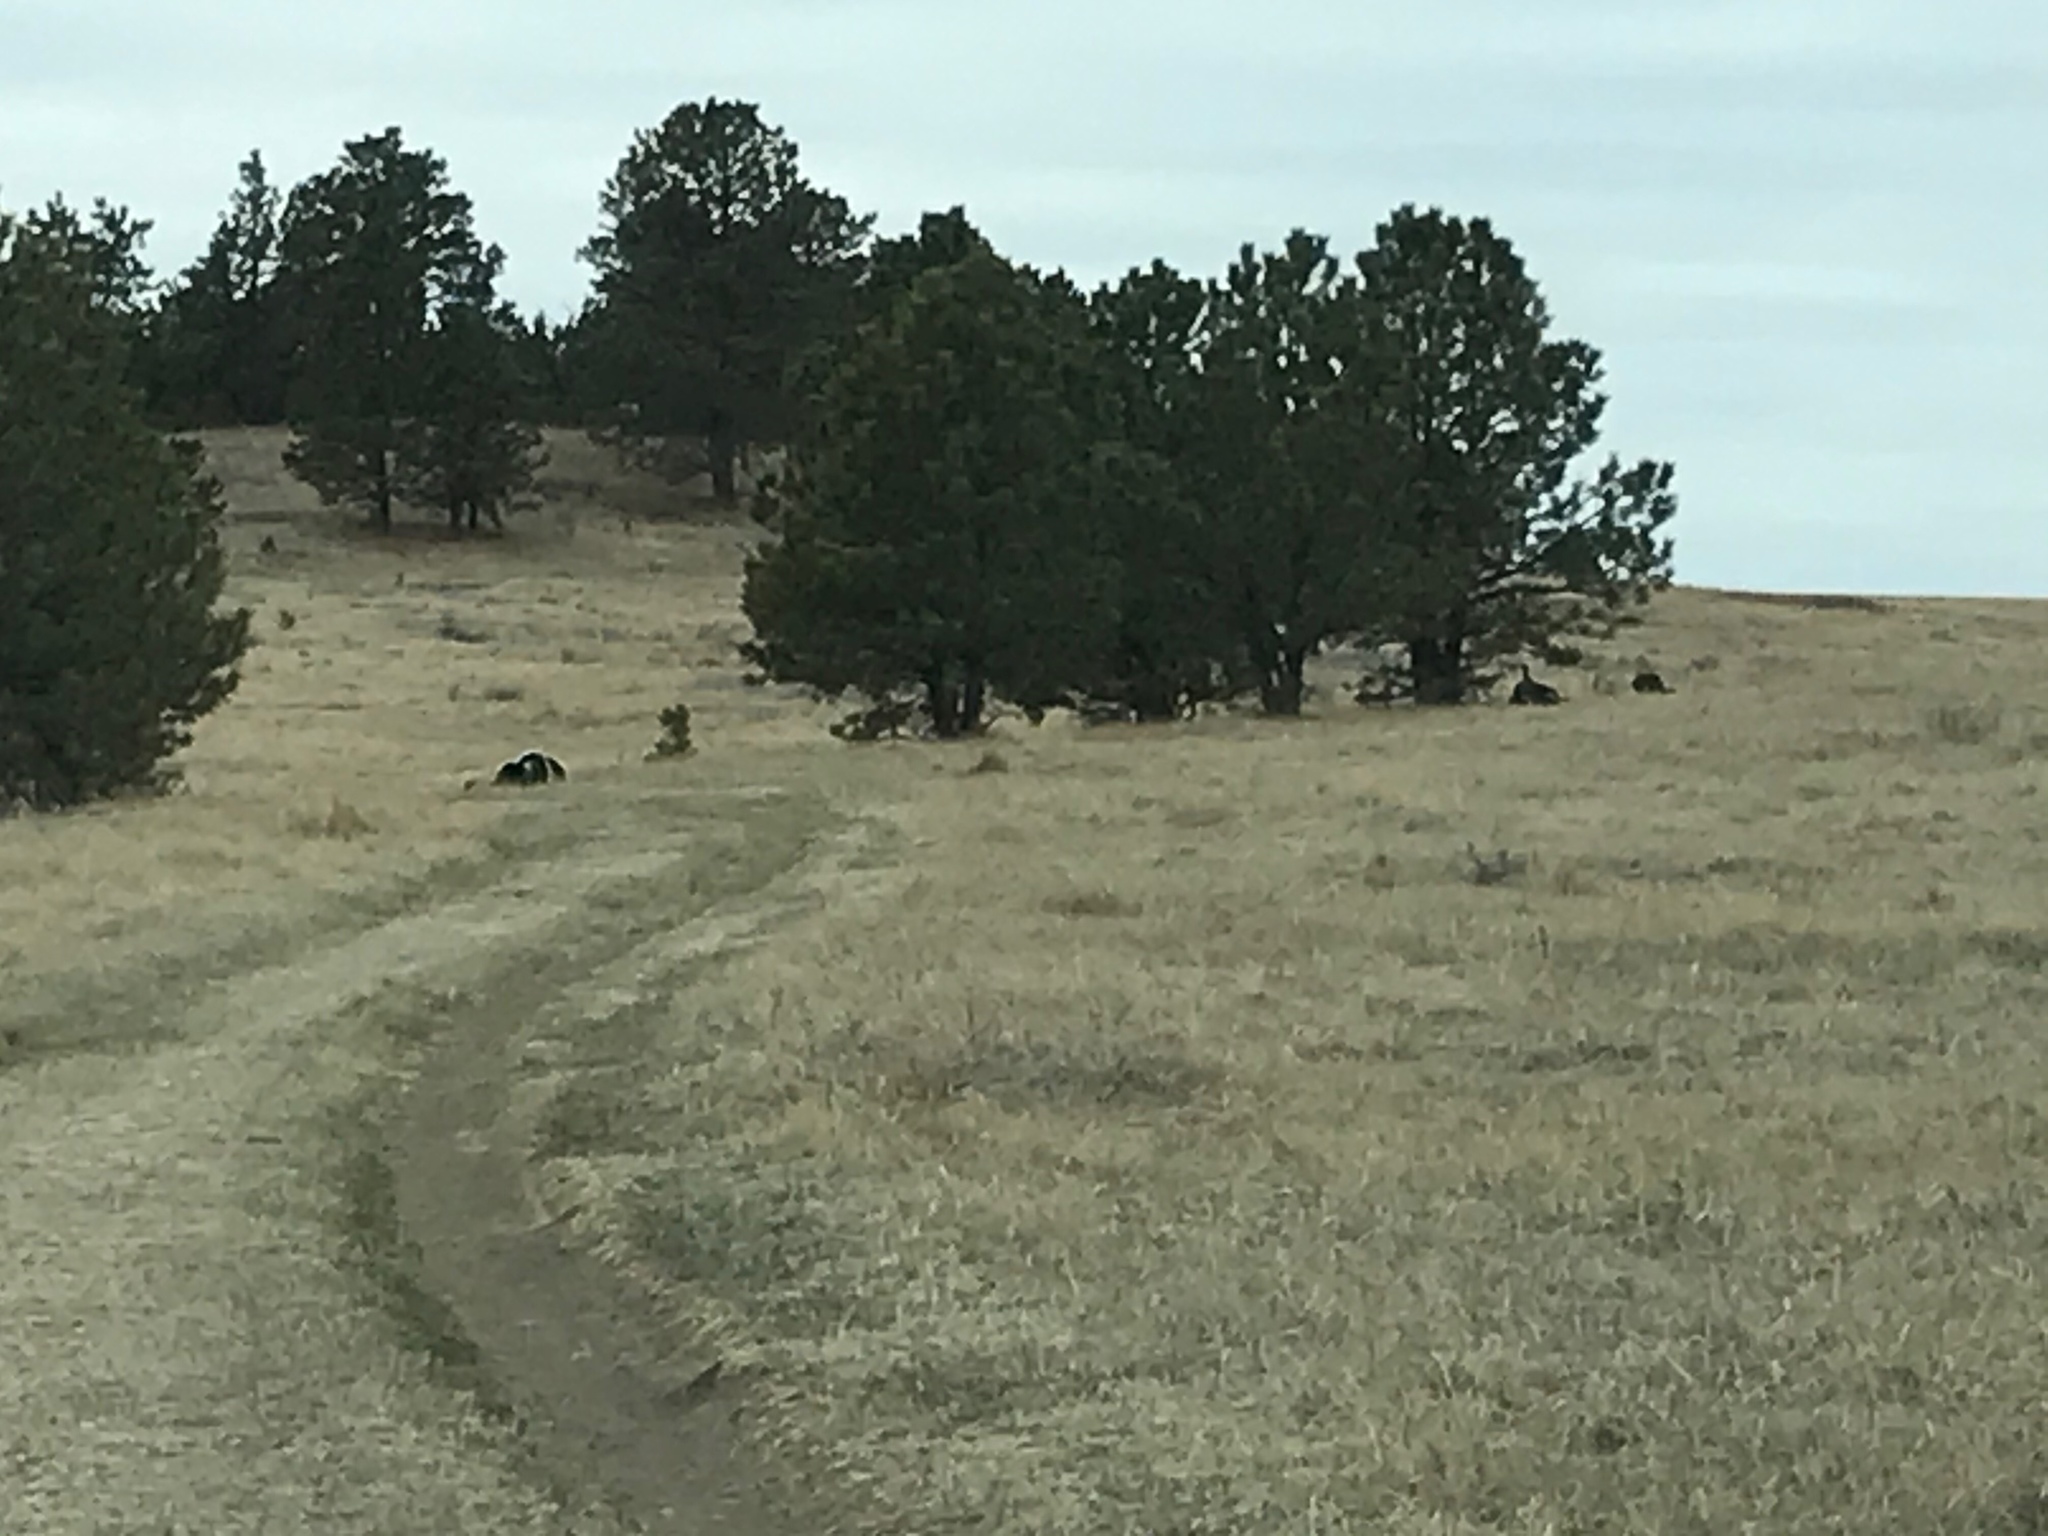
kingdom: Animalia
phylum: Chordata
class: Aves
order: Galliformes
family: Phasianidae
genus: Meleagris
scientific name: Meleagris gallopavo
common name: Wild turkey
